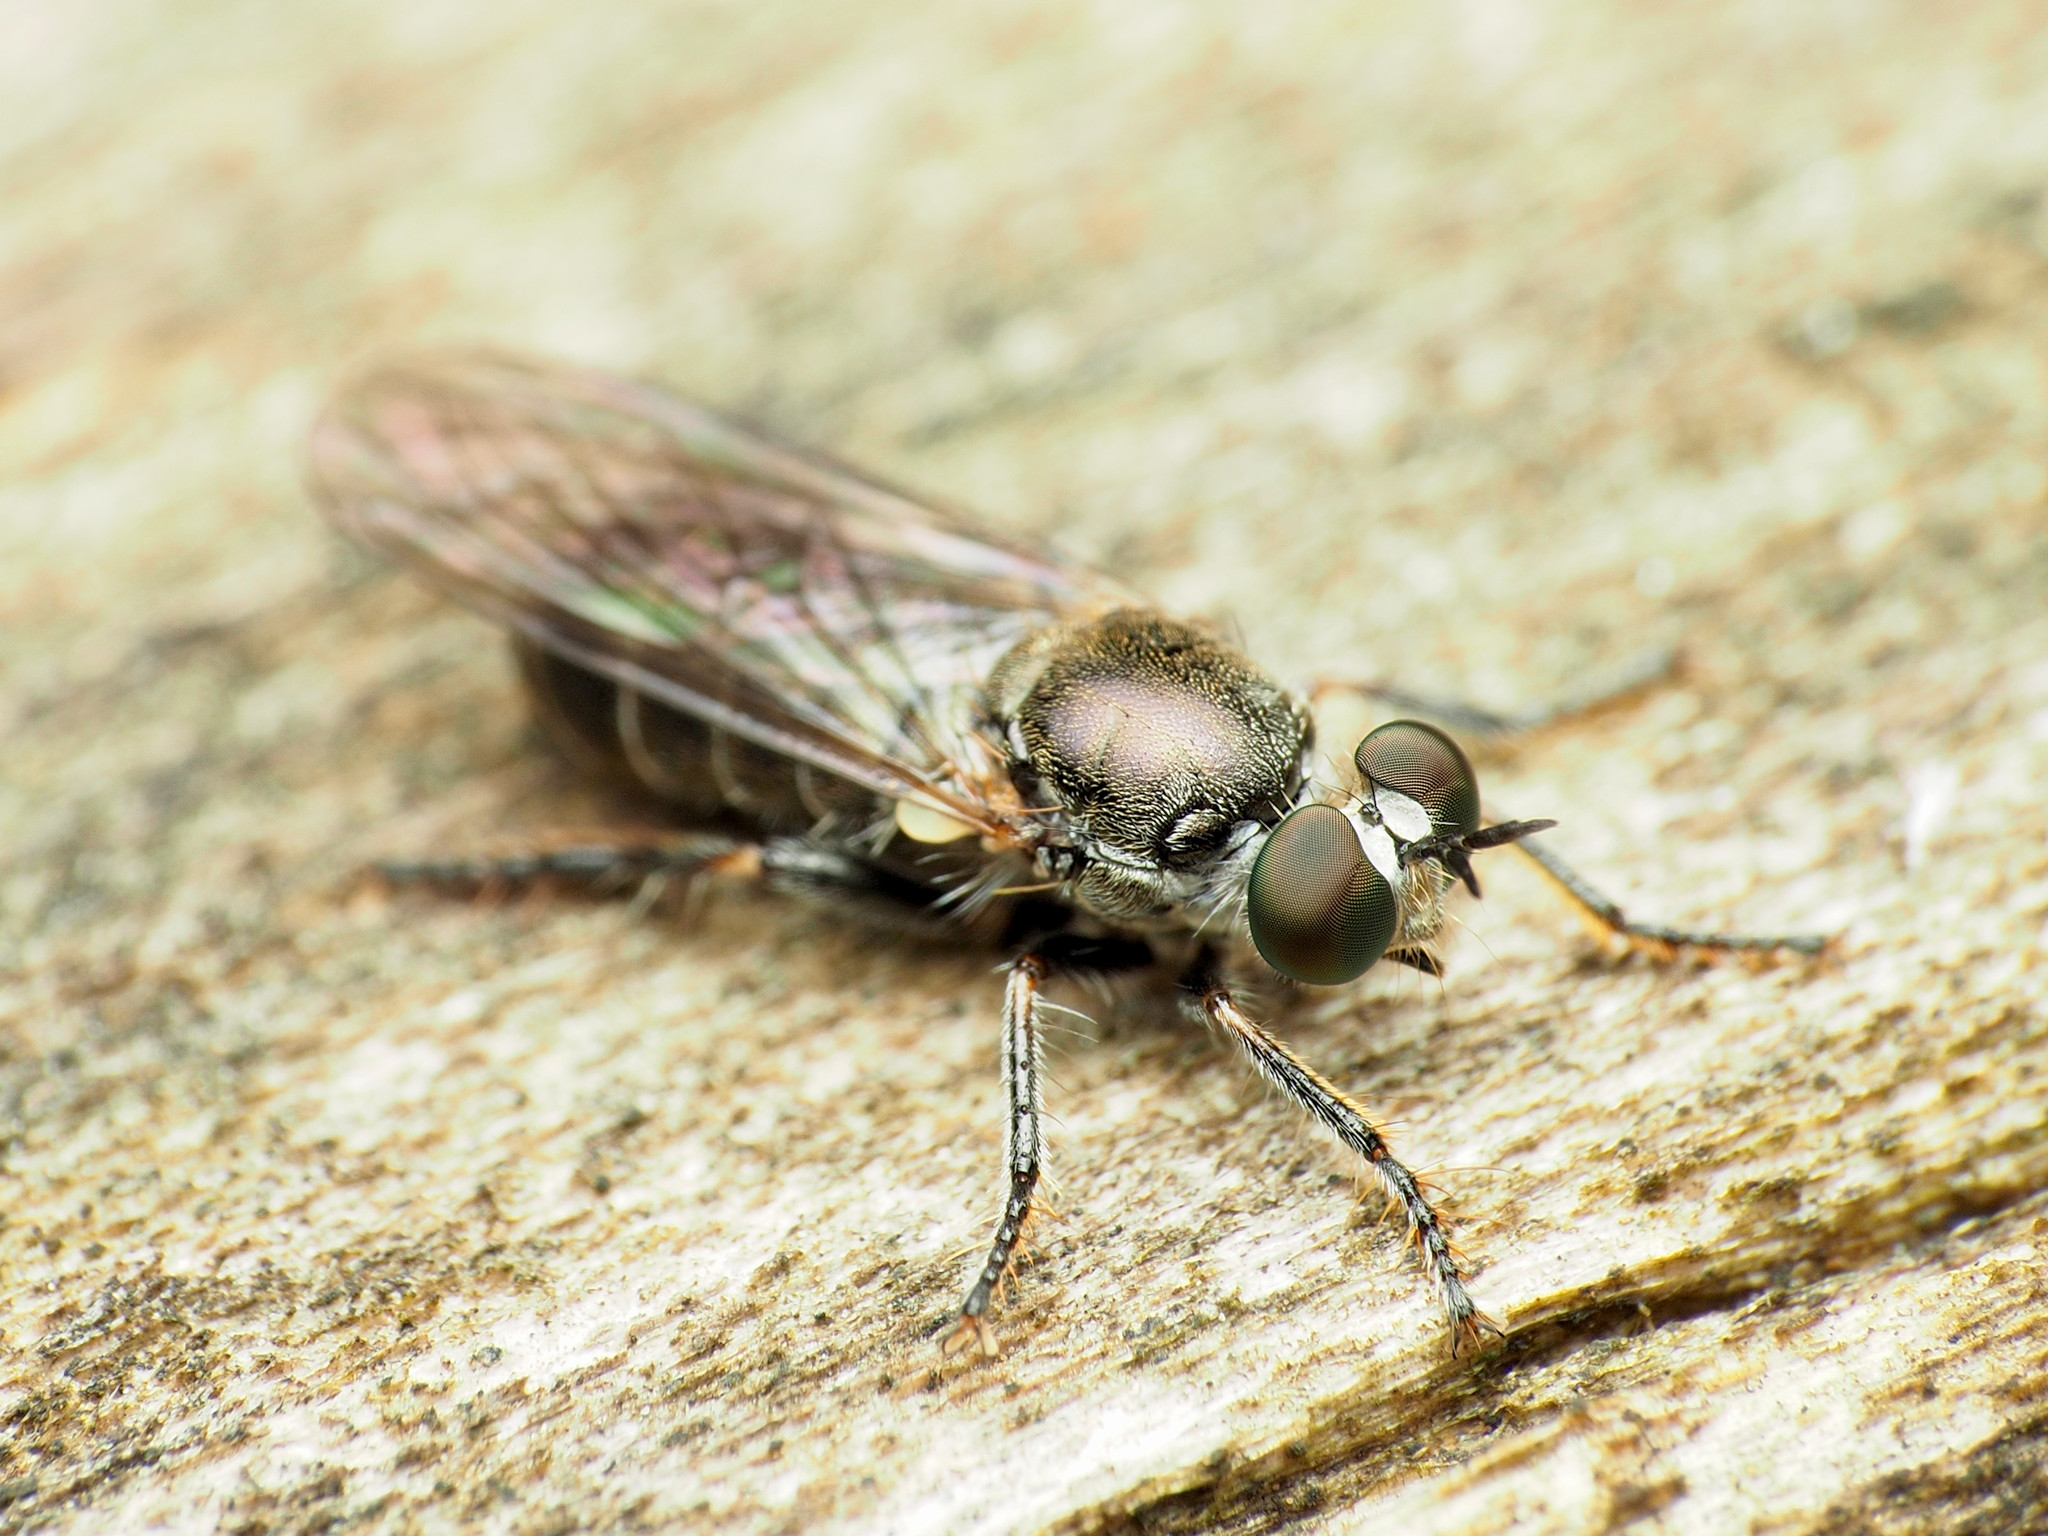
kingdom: Animalia
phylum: Arthropoda
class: Insecta
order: Diptera
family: Asilidae
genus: Atomosia
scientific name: Atomosia puella
